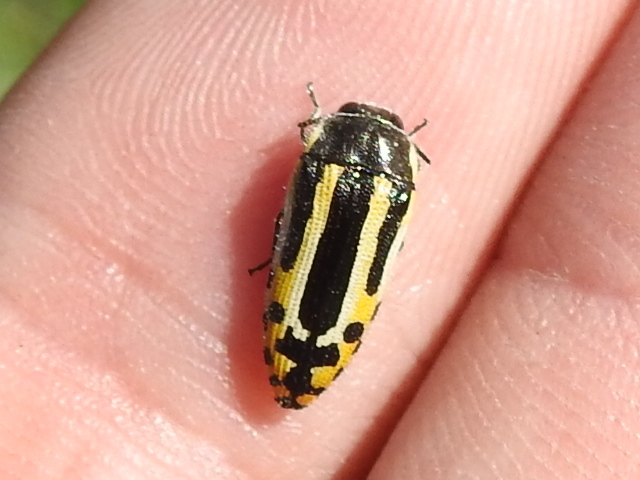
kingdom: Animalia
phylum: Arthropoda
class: Insecta
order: Coleoptera
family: Buprestidae
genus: Acmaeodera
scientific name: Acmaeodera scalaris
